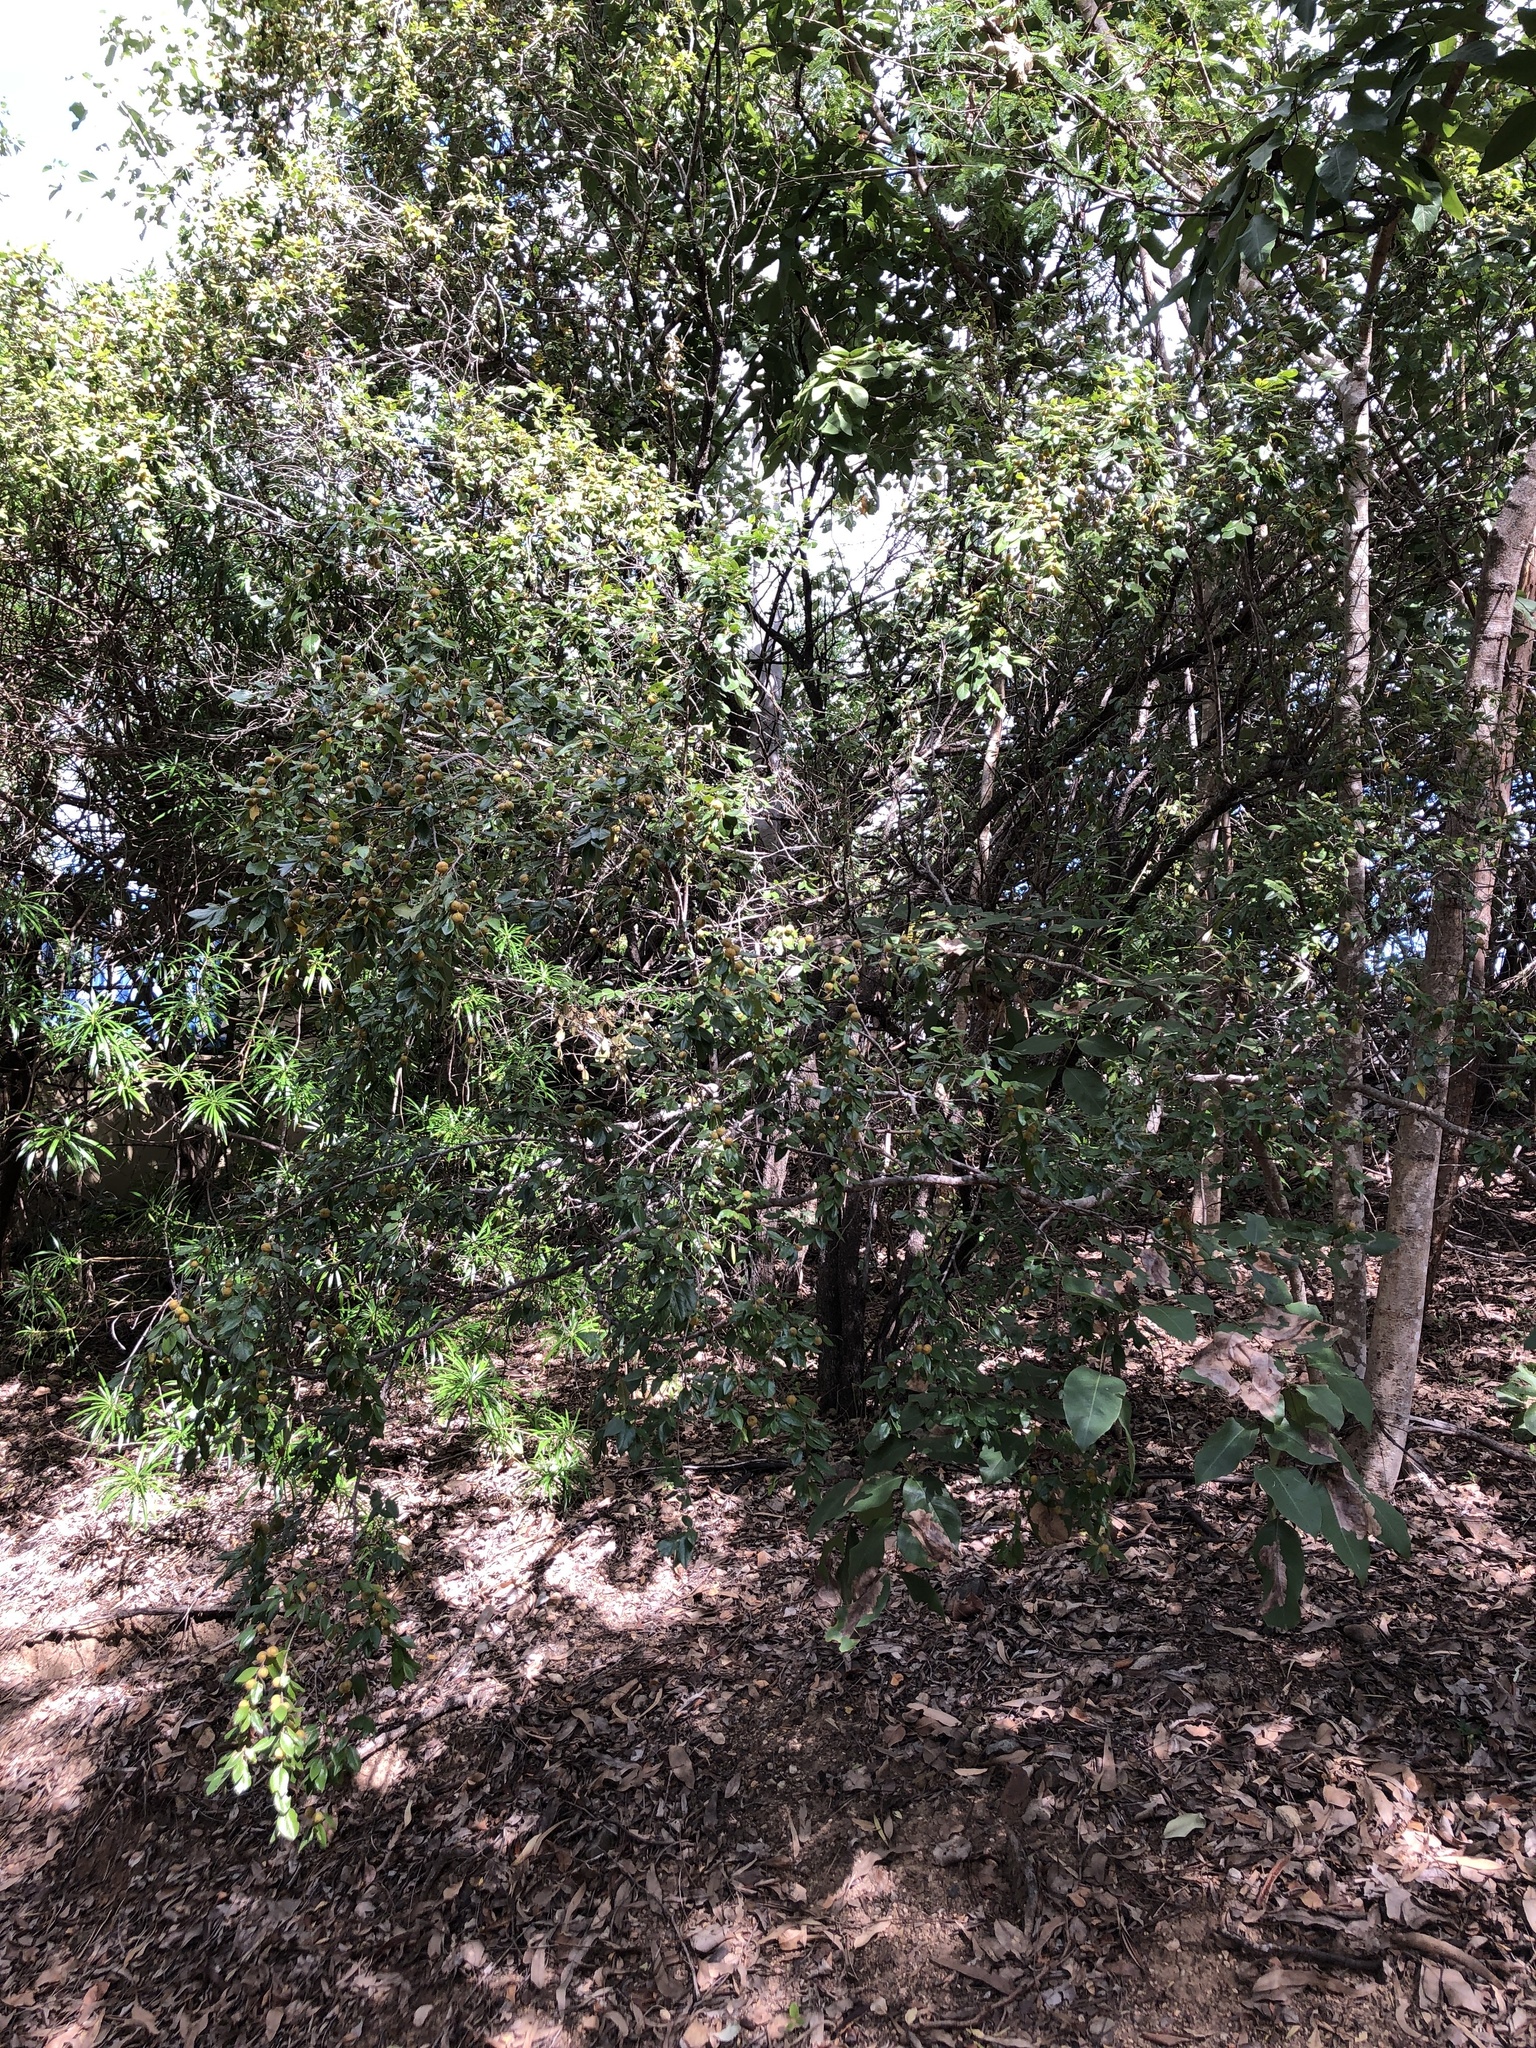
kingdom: Plantae
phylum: Tracheophyta
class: Magnoliopsida
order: Malpighiales
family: Picrodendraceae
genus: Petalostigma
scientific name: Petalostigma pubescens
